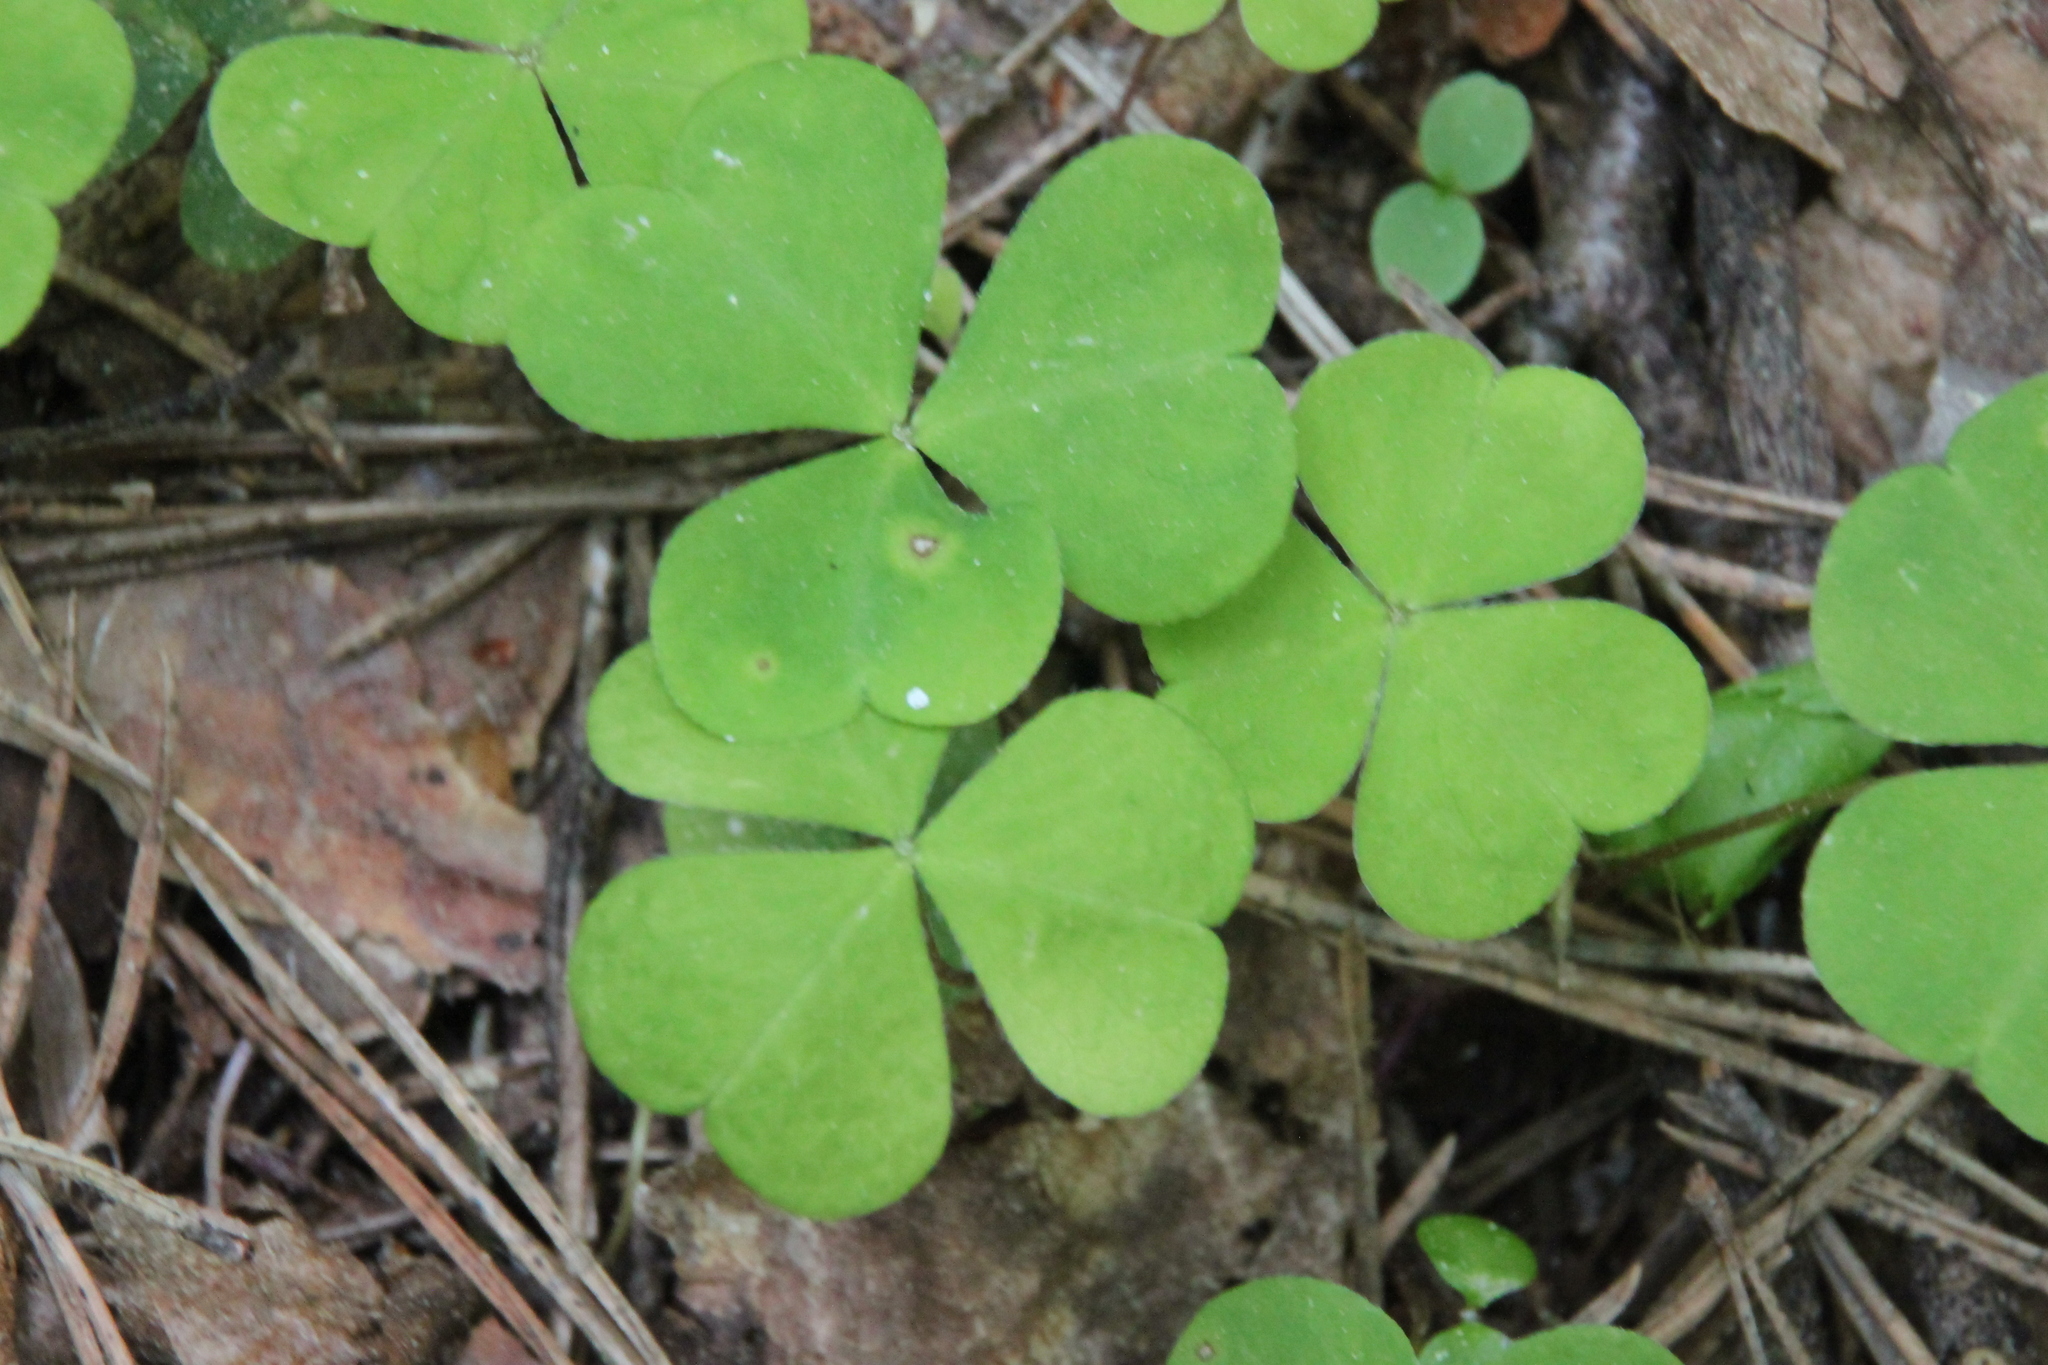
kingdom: Plantae
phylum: Tracheophyta
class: Magnoliopsida
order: Oxalidales
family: Oxalidaceae
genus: Oxalis
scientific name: Oxalis acetosella
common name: Wood-sorrel
